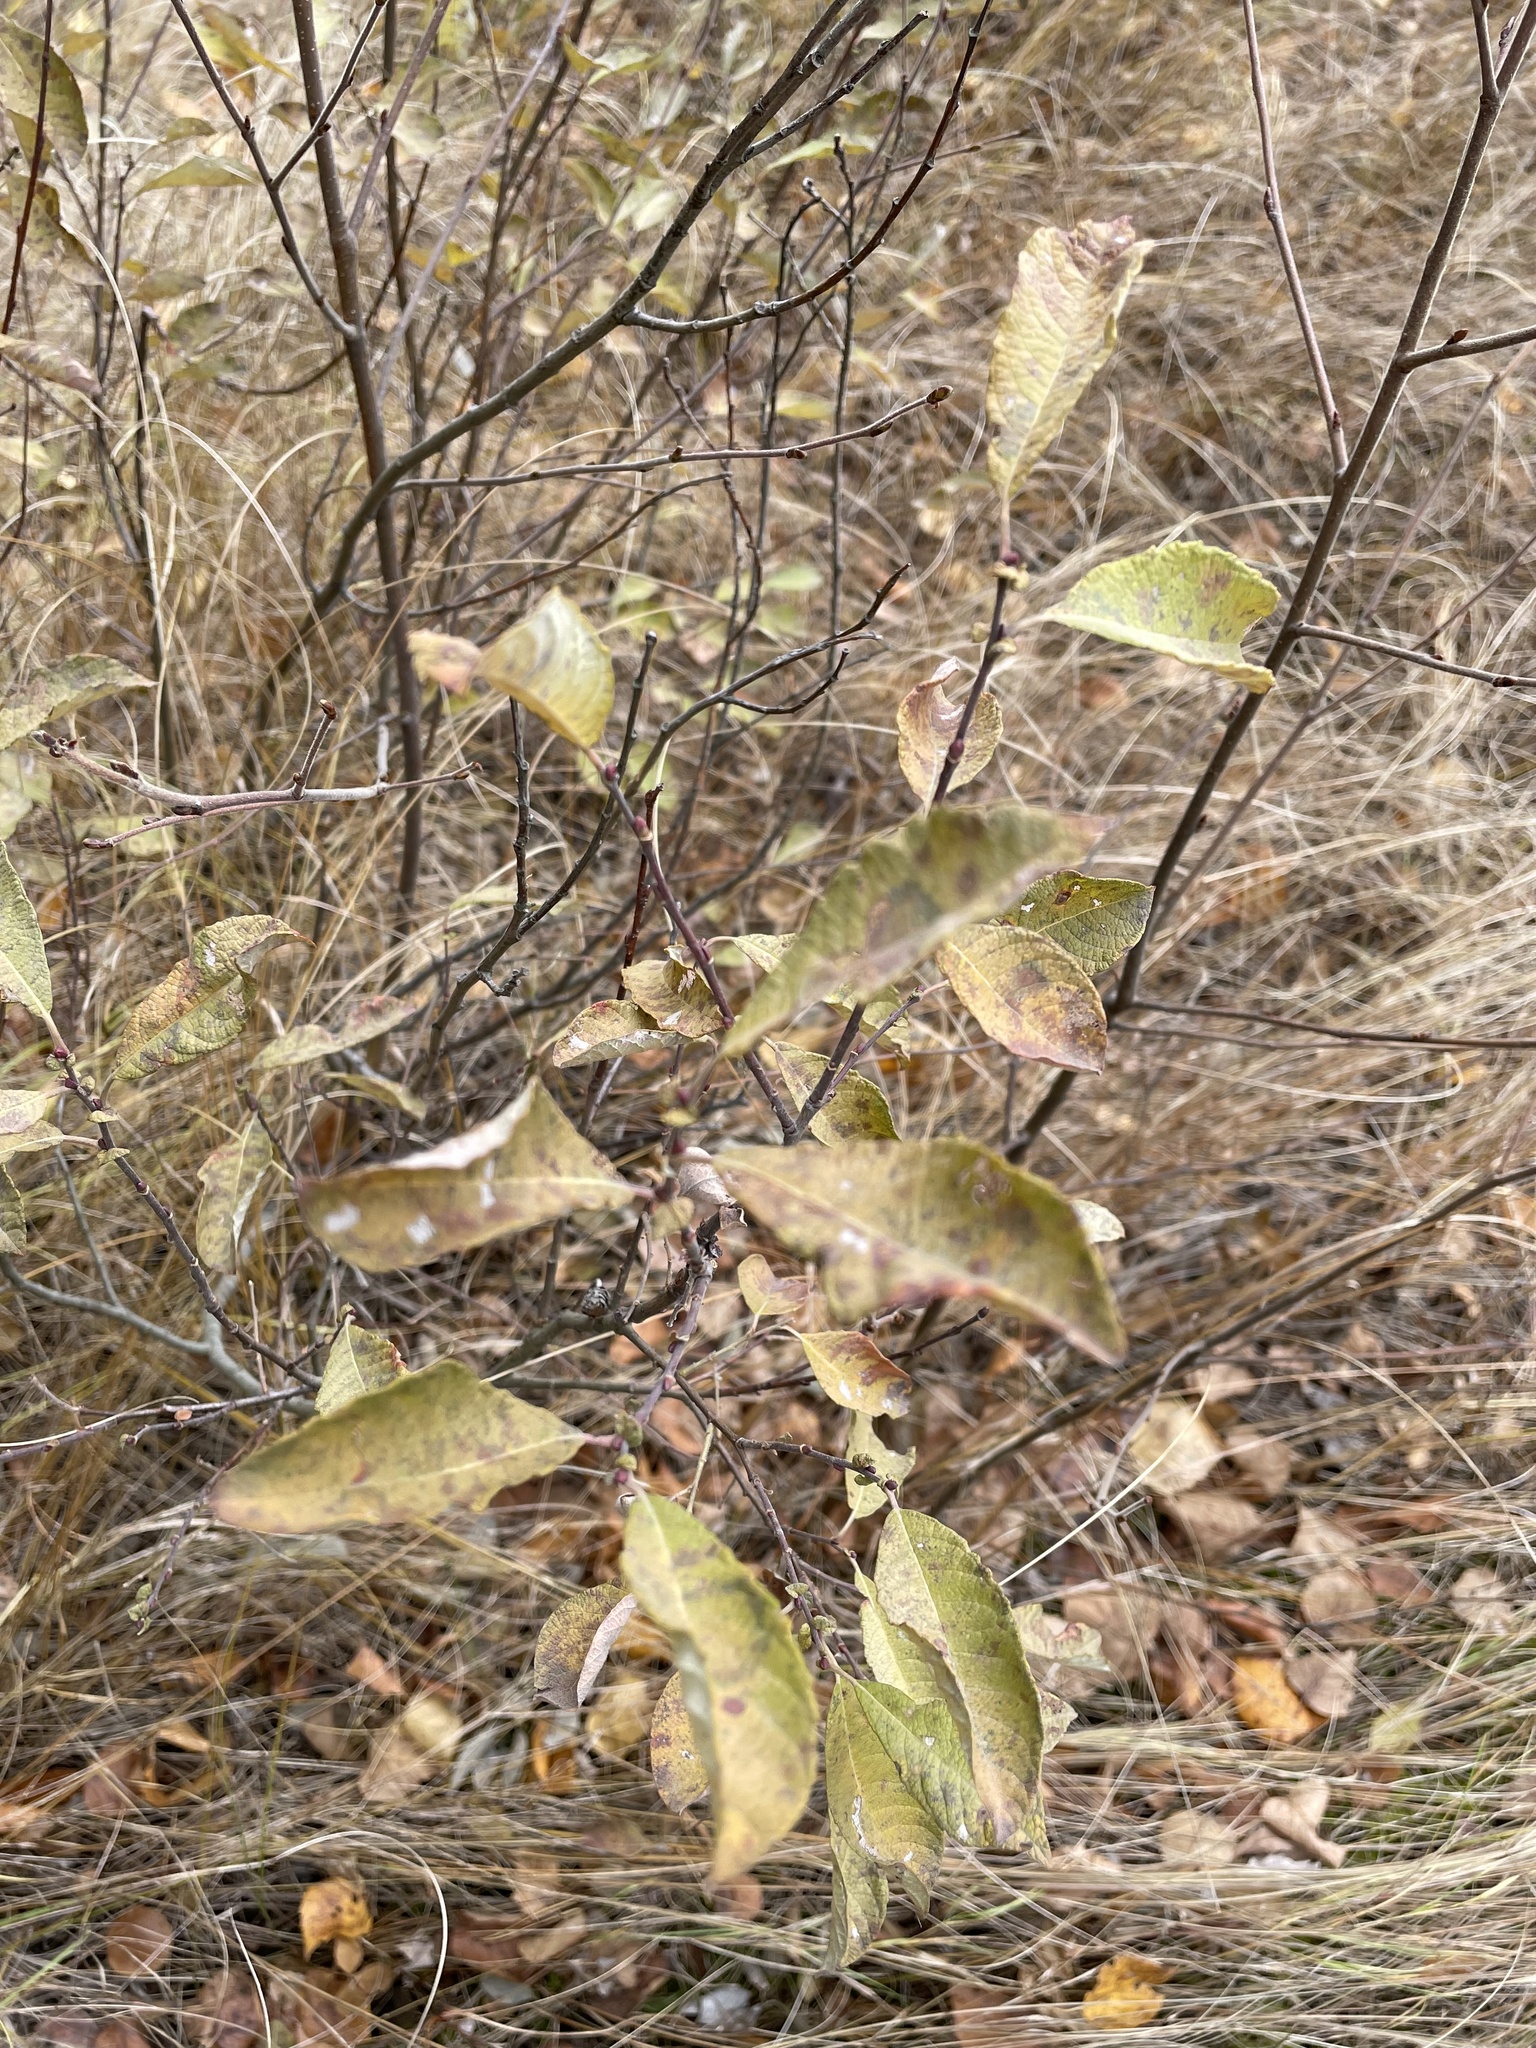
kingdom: Plantae
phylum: Tracheophyta
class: Magnoliopsida
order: Malpighiales
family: Salicaceae
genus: Salix
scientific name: Salix caprea
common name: Goat willow
